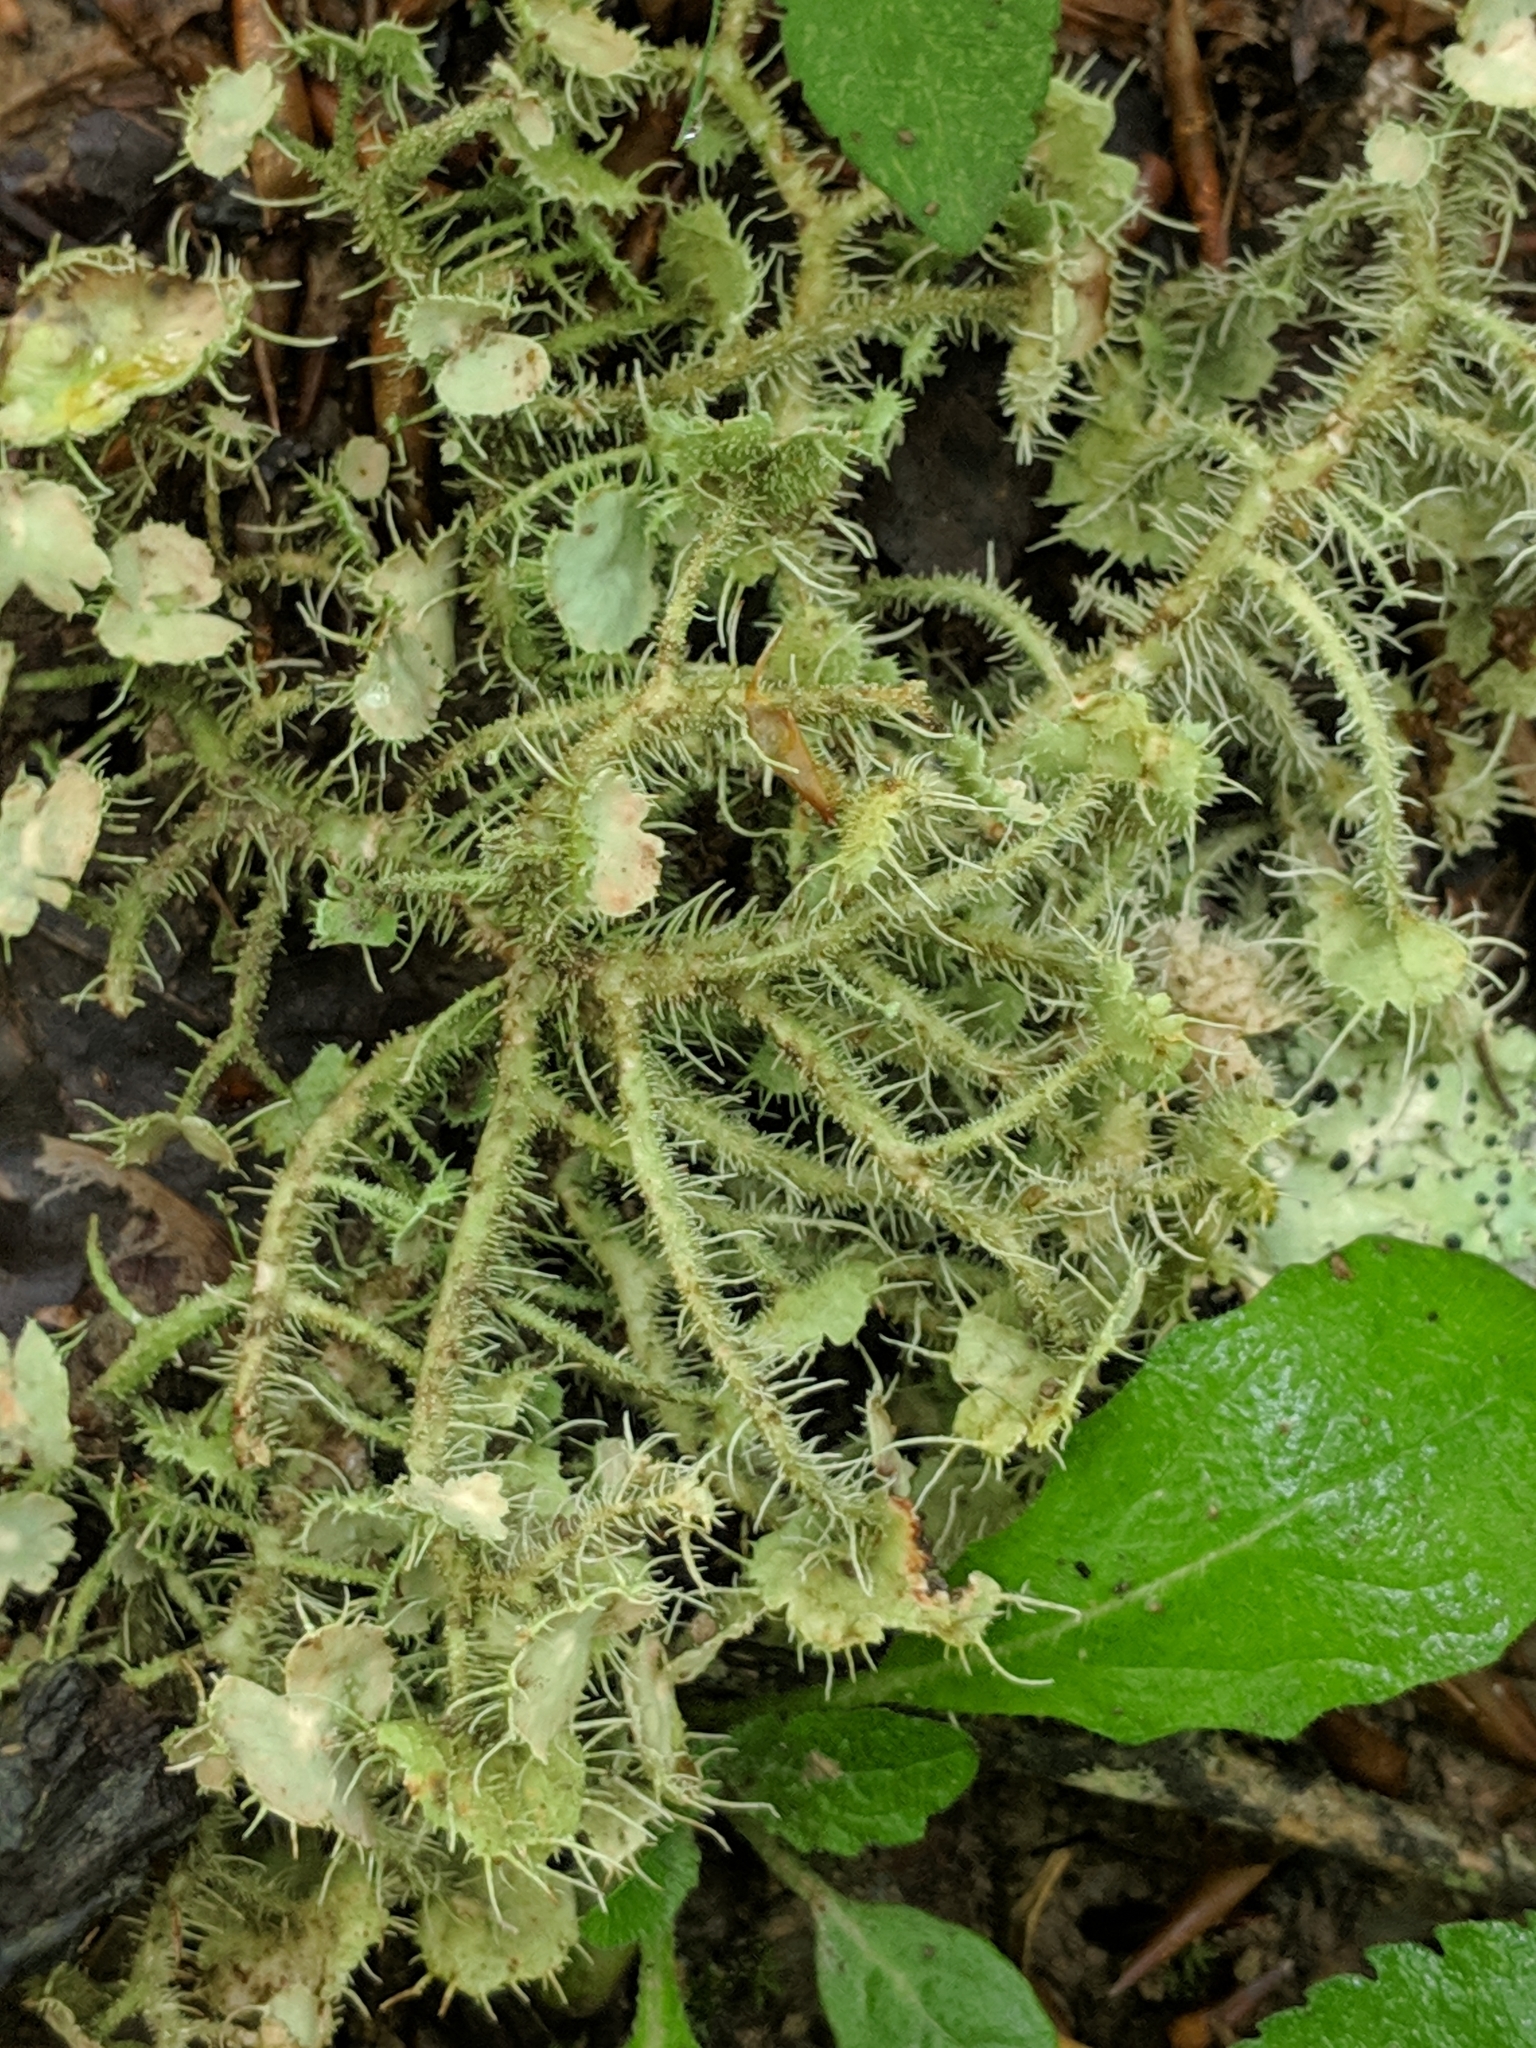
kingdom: Fungi
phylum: Ascomycota
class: Lecanoromycetes
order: Lecanorales
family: Parmeliaceae
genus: Usnea
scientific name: Usnea strigosa
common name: Bushy beard lichen
